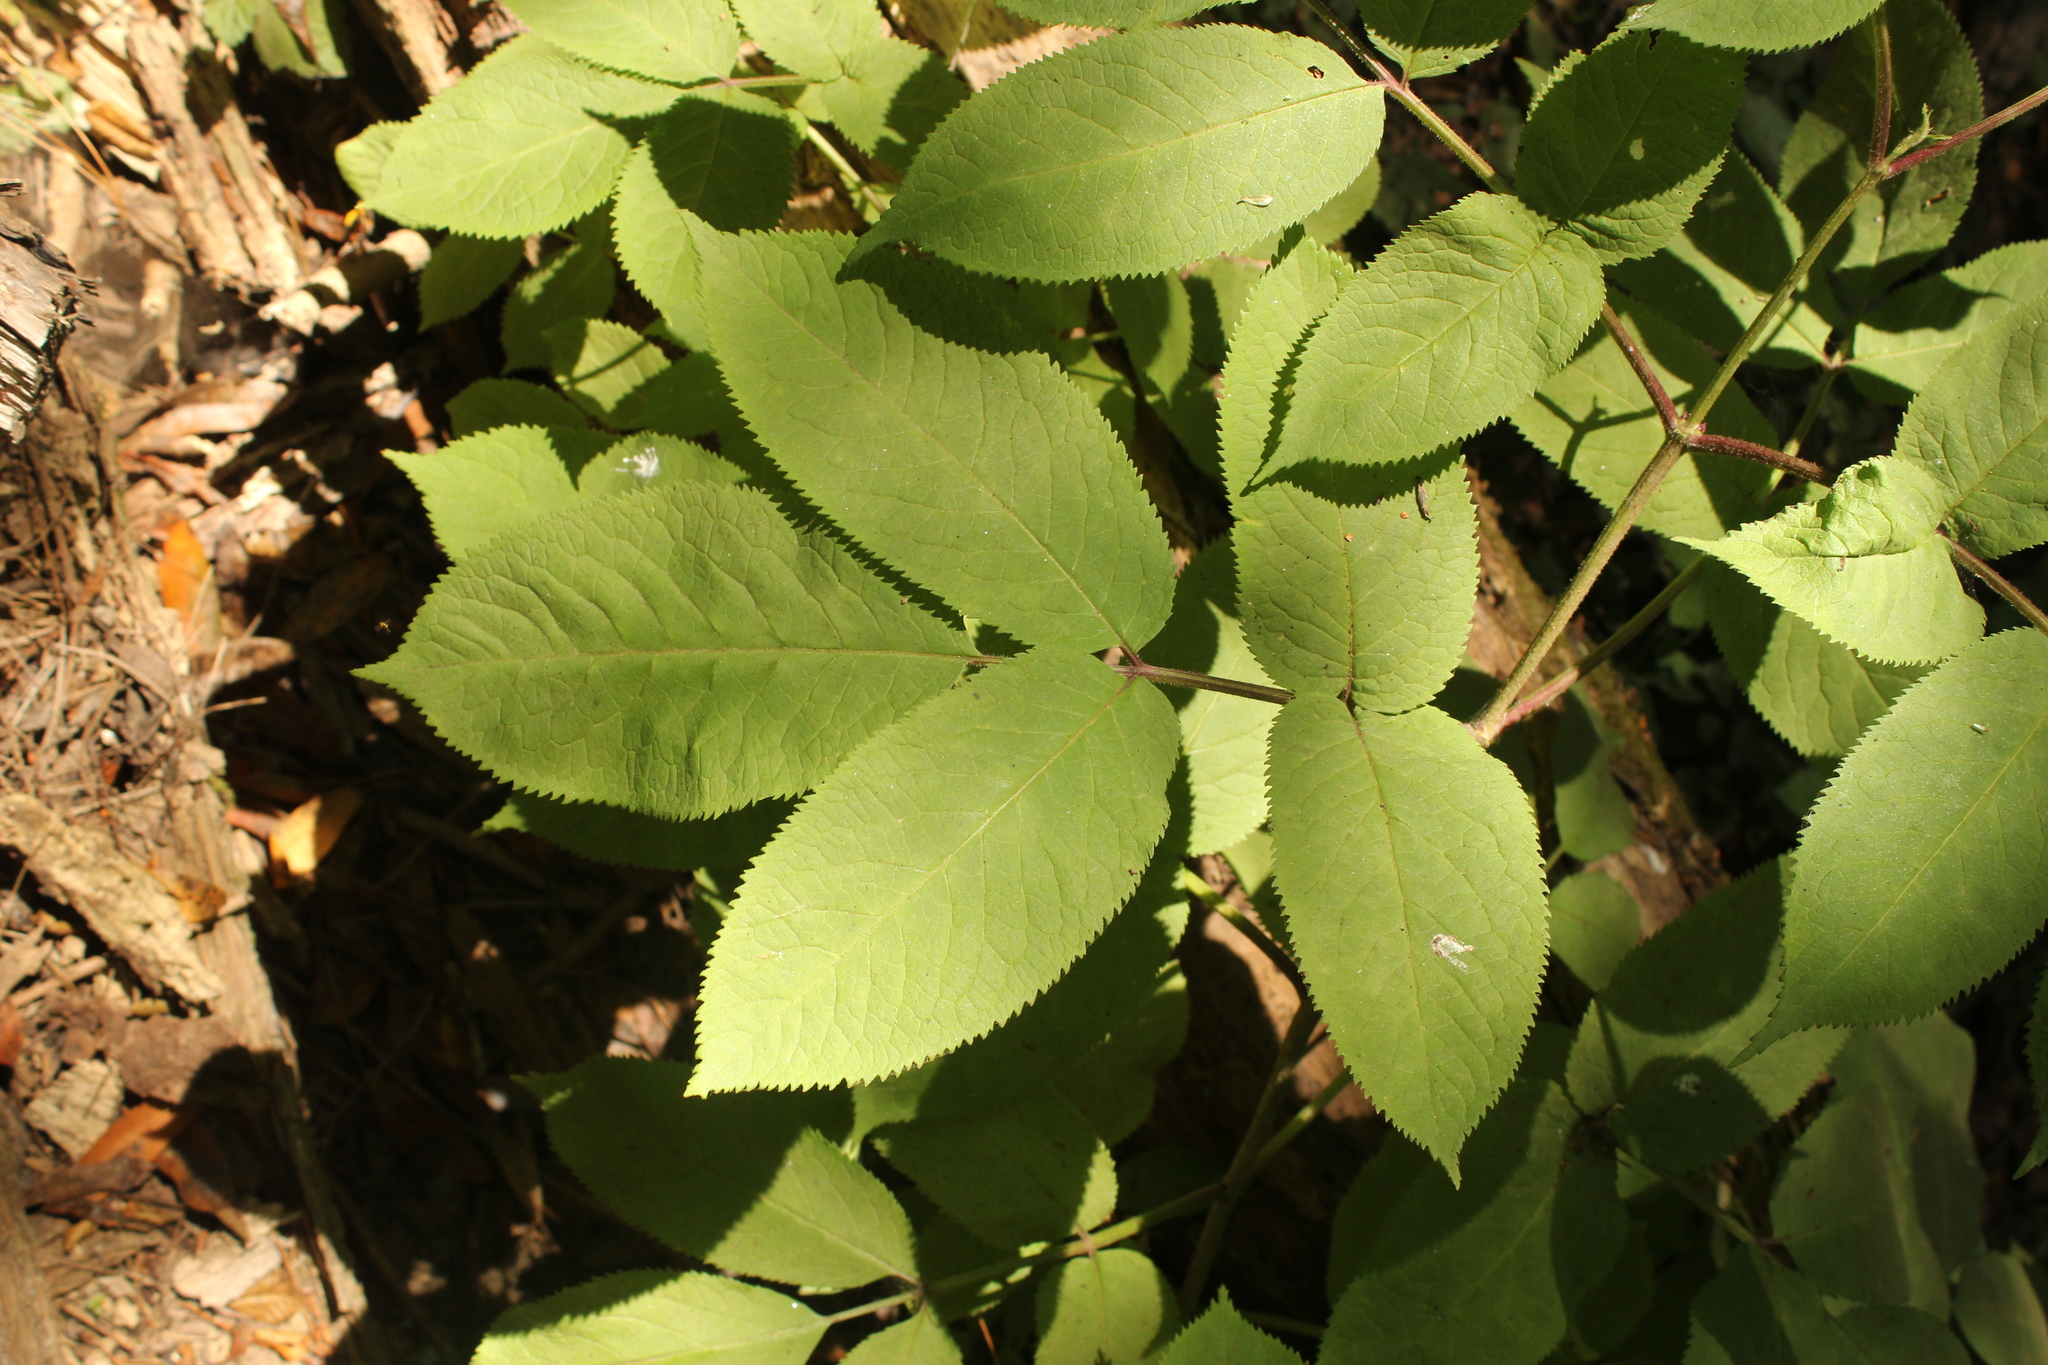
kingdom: Plantae
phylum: Tracheophyta
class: Magnoliopsida
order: Dipsacales
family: Viburnaceae
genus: Sambucus
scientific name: Sambucus cerulea
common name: Blue elder
